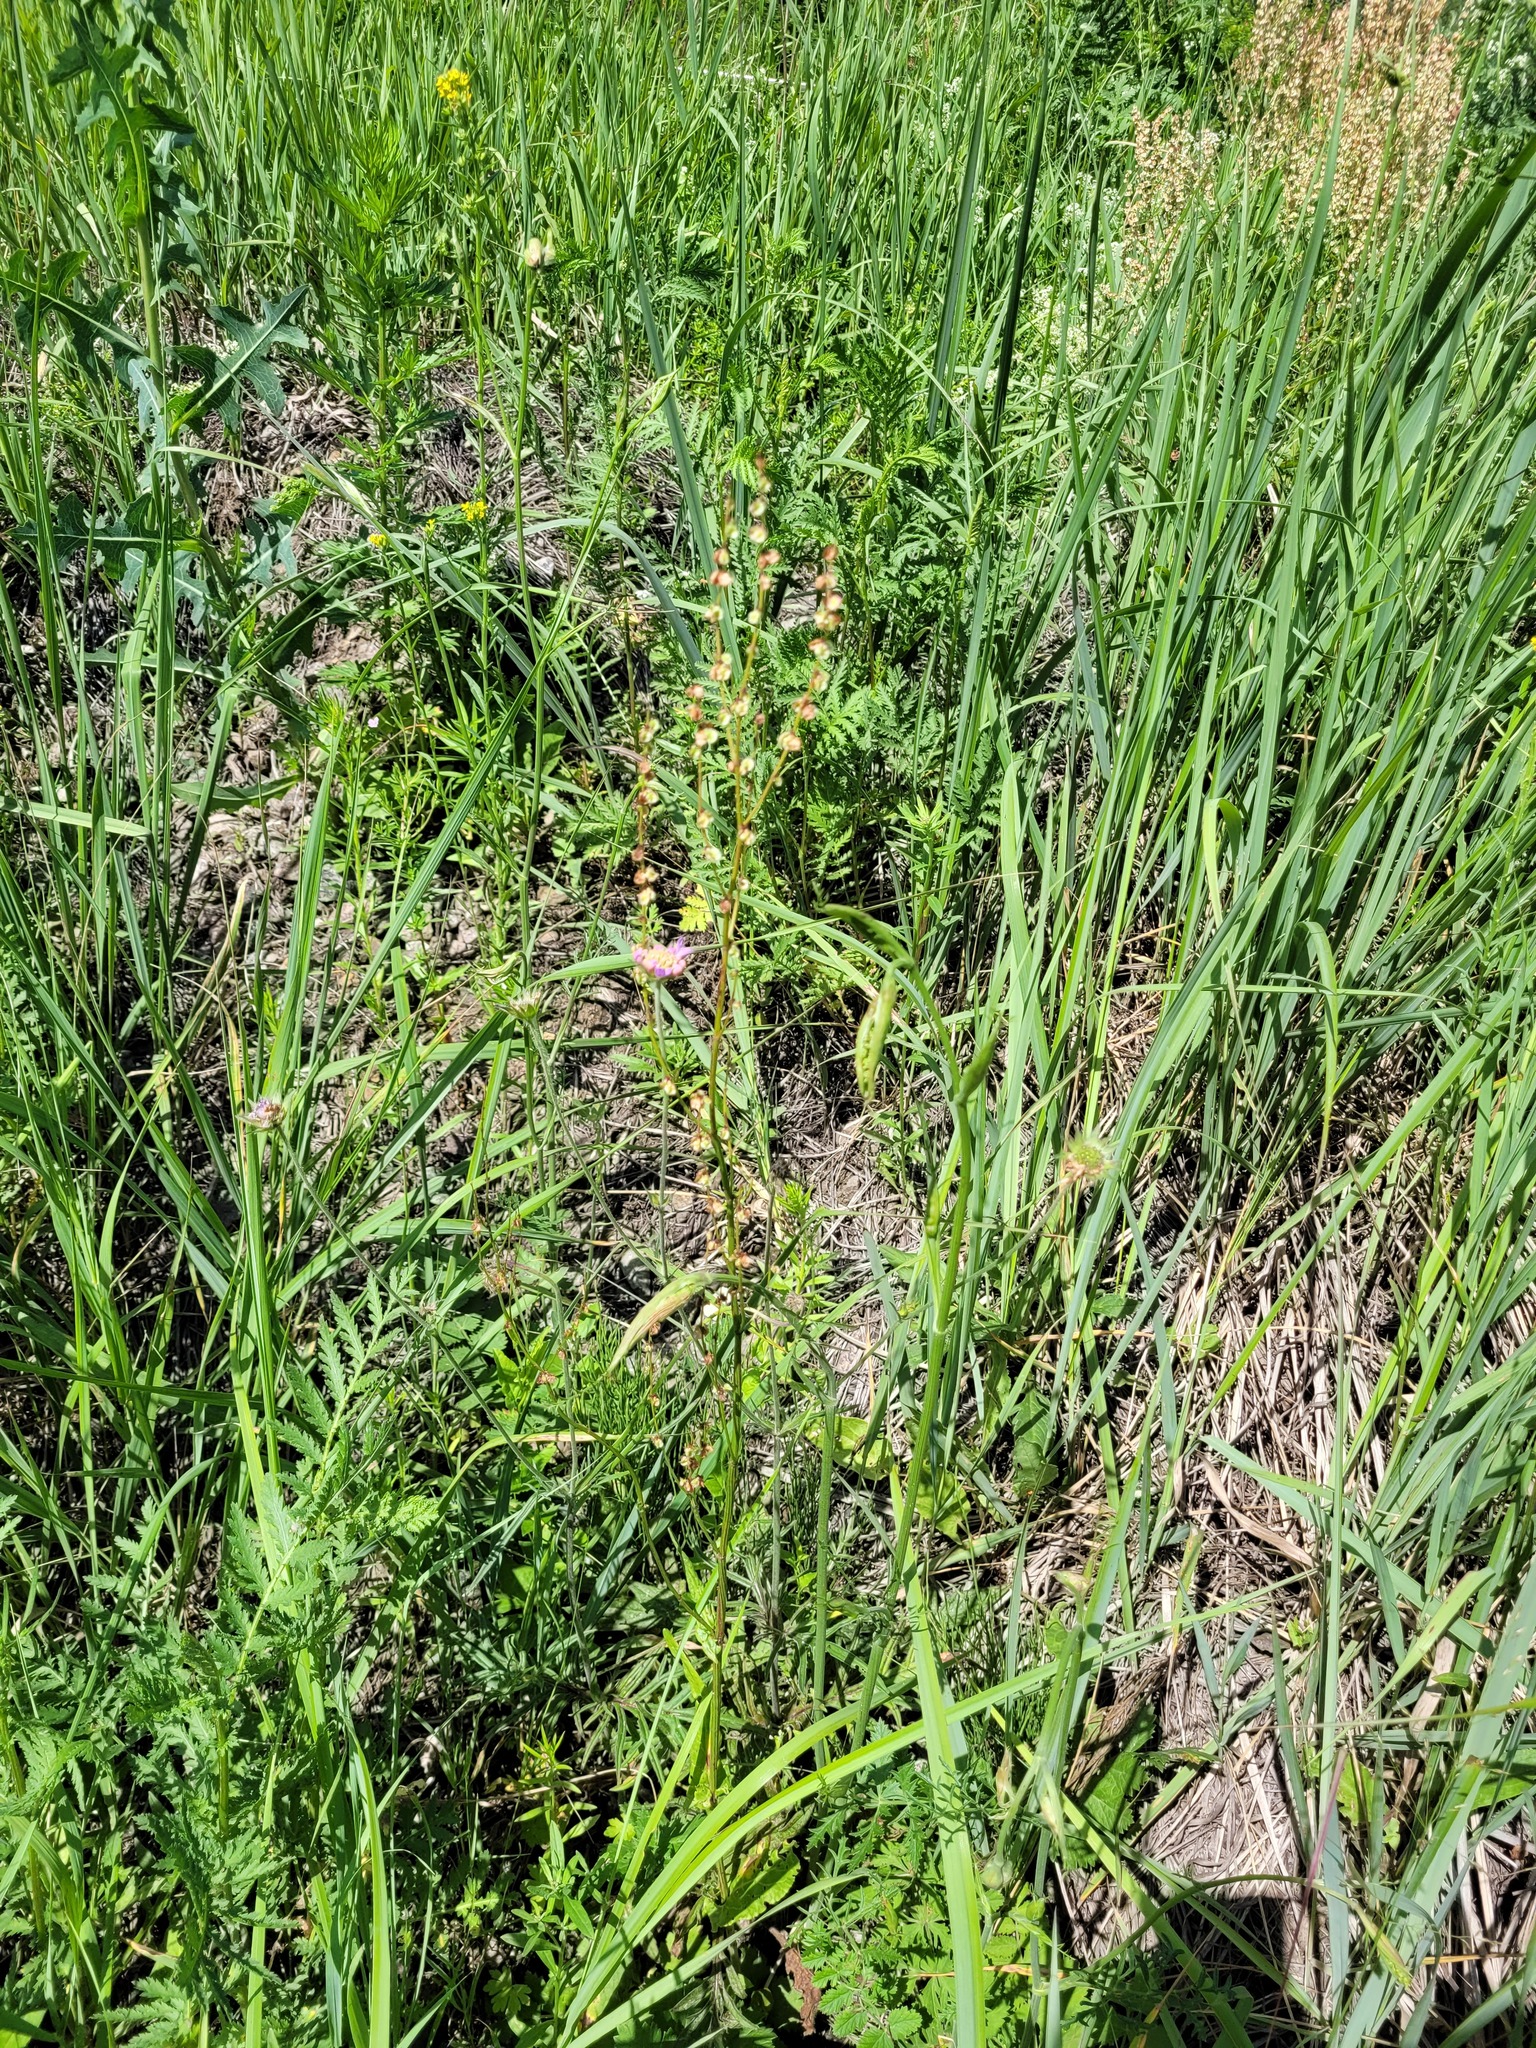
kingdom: Plantae
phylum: Tracheophyta
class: Magnoliopsida
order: Caryophyllales
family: Polygonaceae
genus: Rumex
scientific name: Rumex acetosa
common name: Garden sorrel
